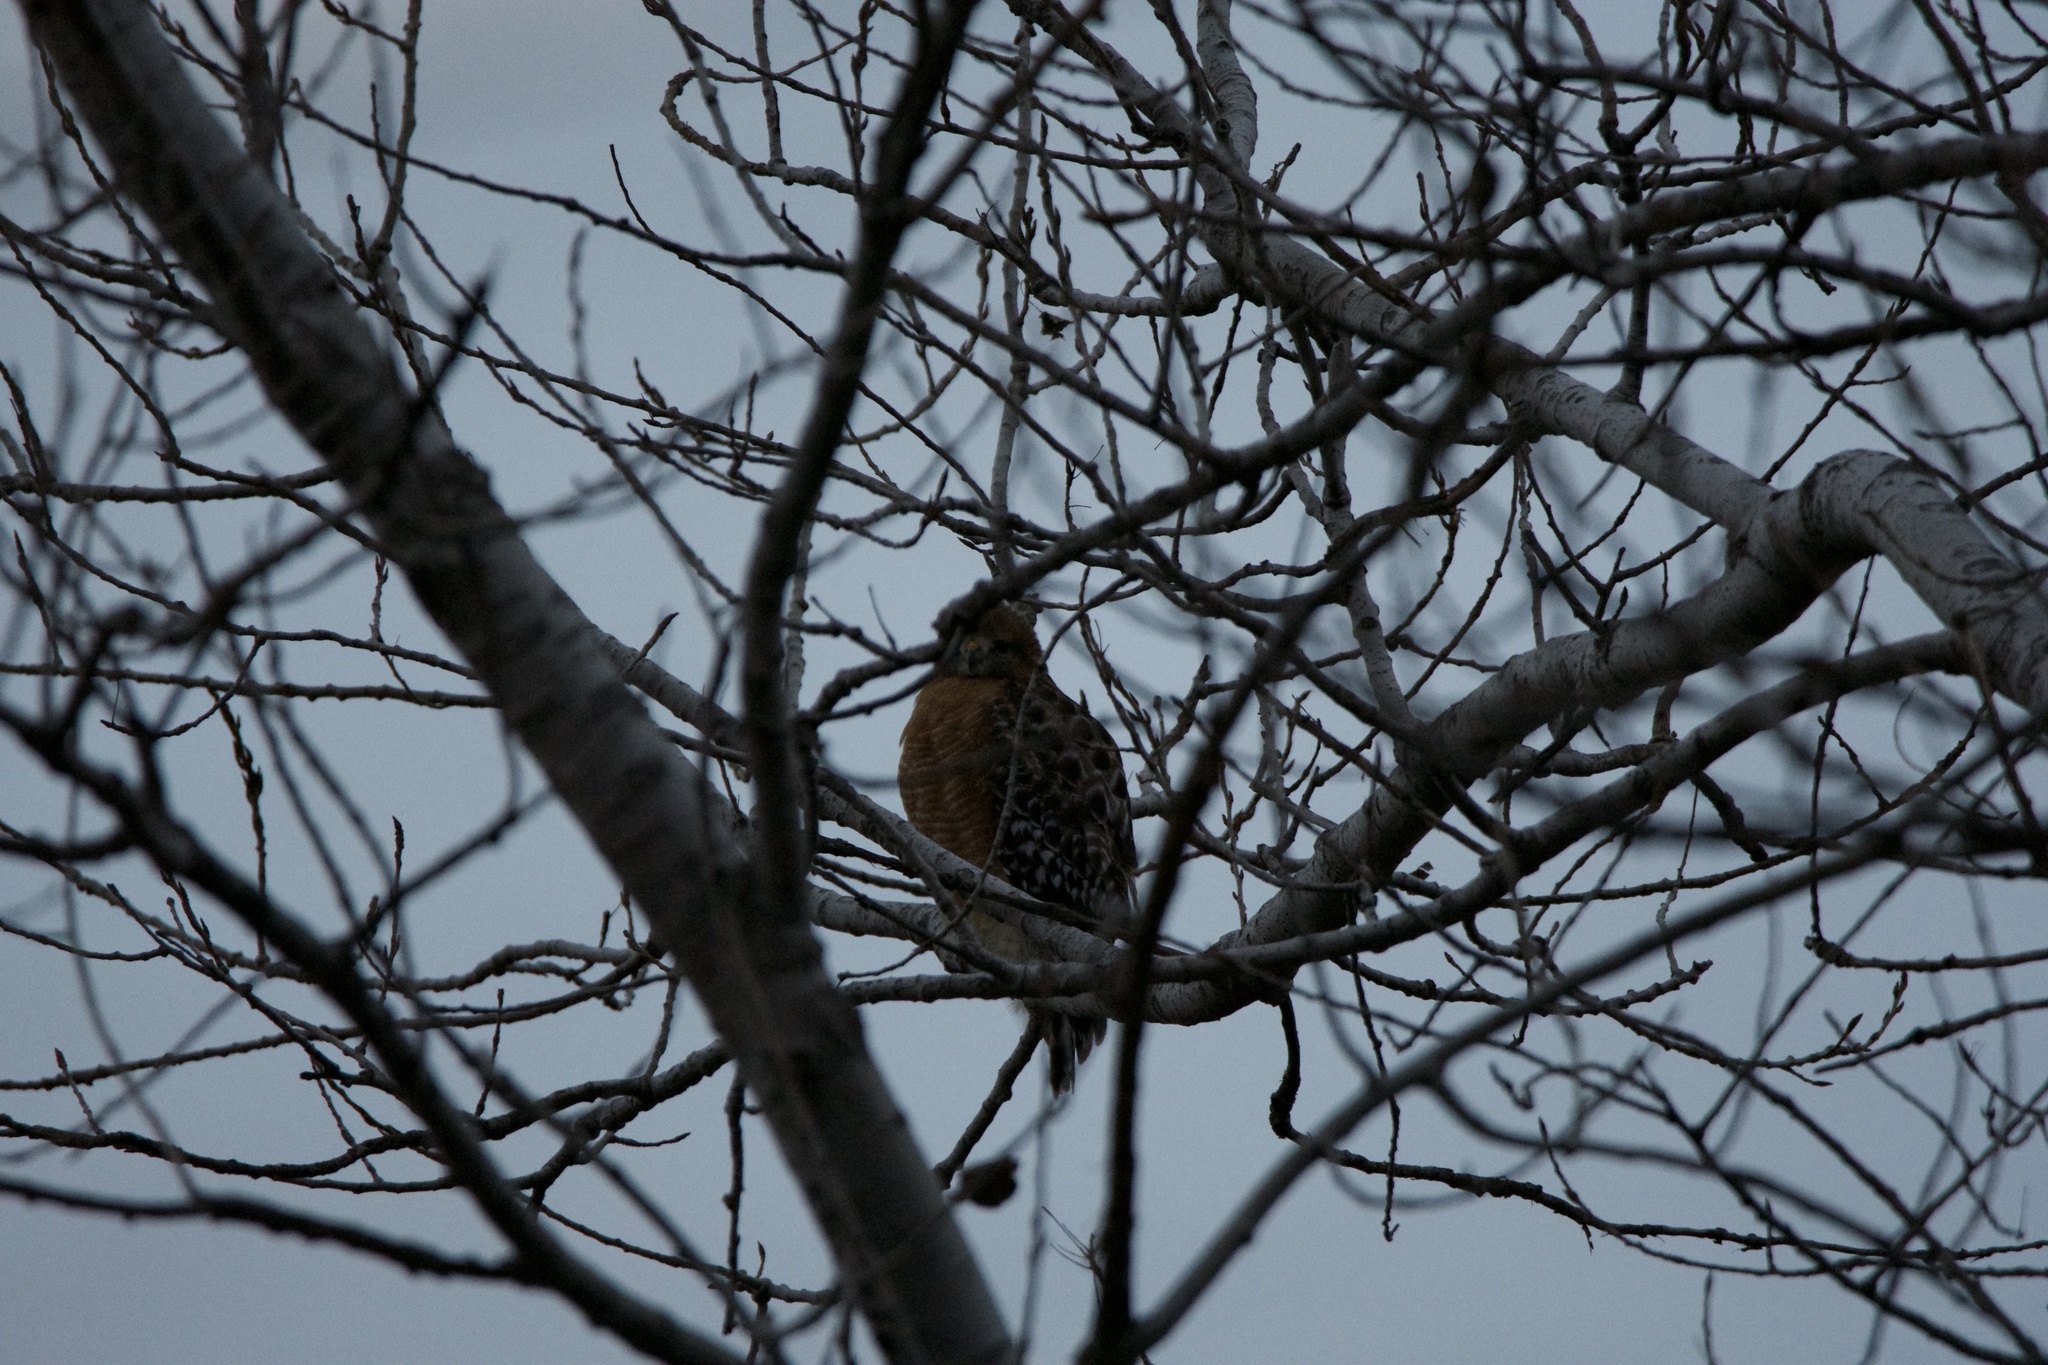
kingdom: Animalia
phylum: Chordata
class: Aves
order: Accipitriformes
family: Accipitridae
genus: Buteo
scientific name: Buteo lineatus
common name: Red-shouldered hawk
